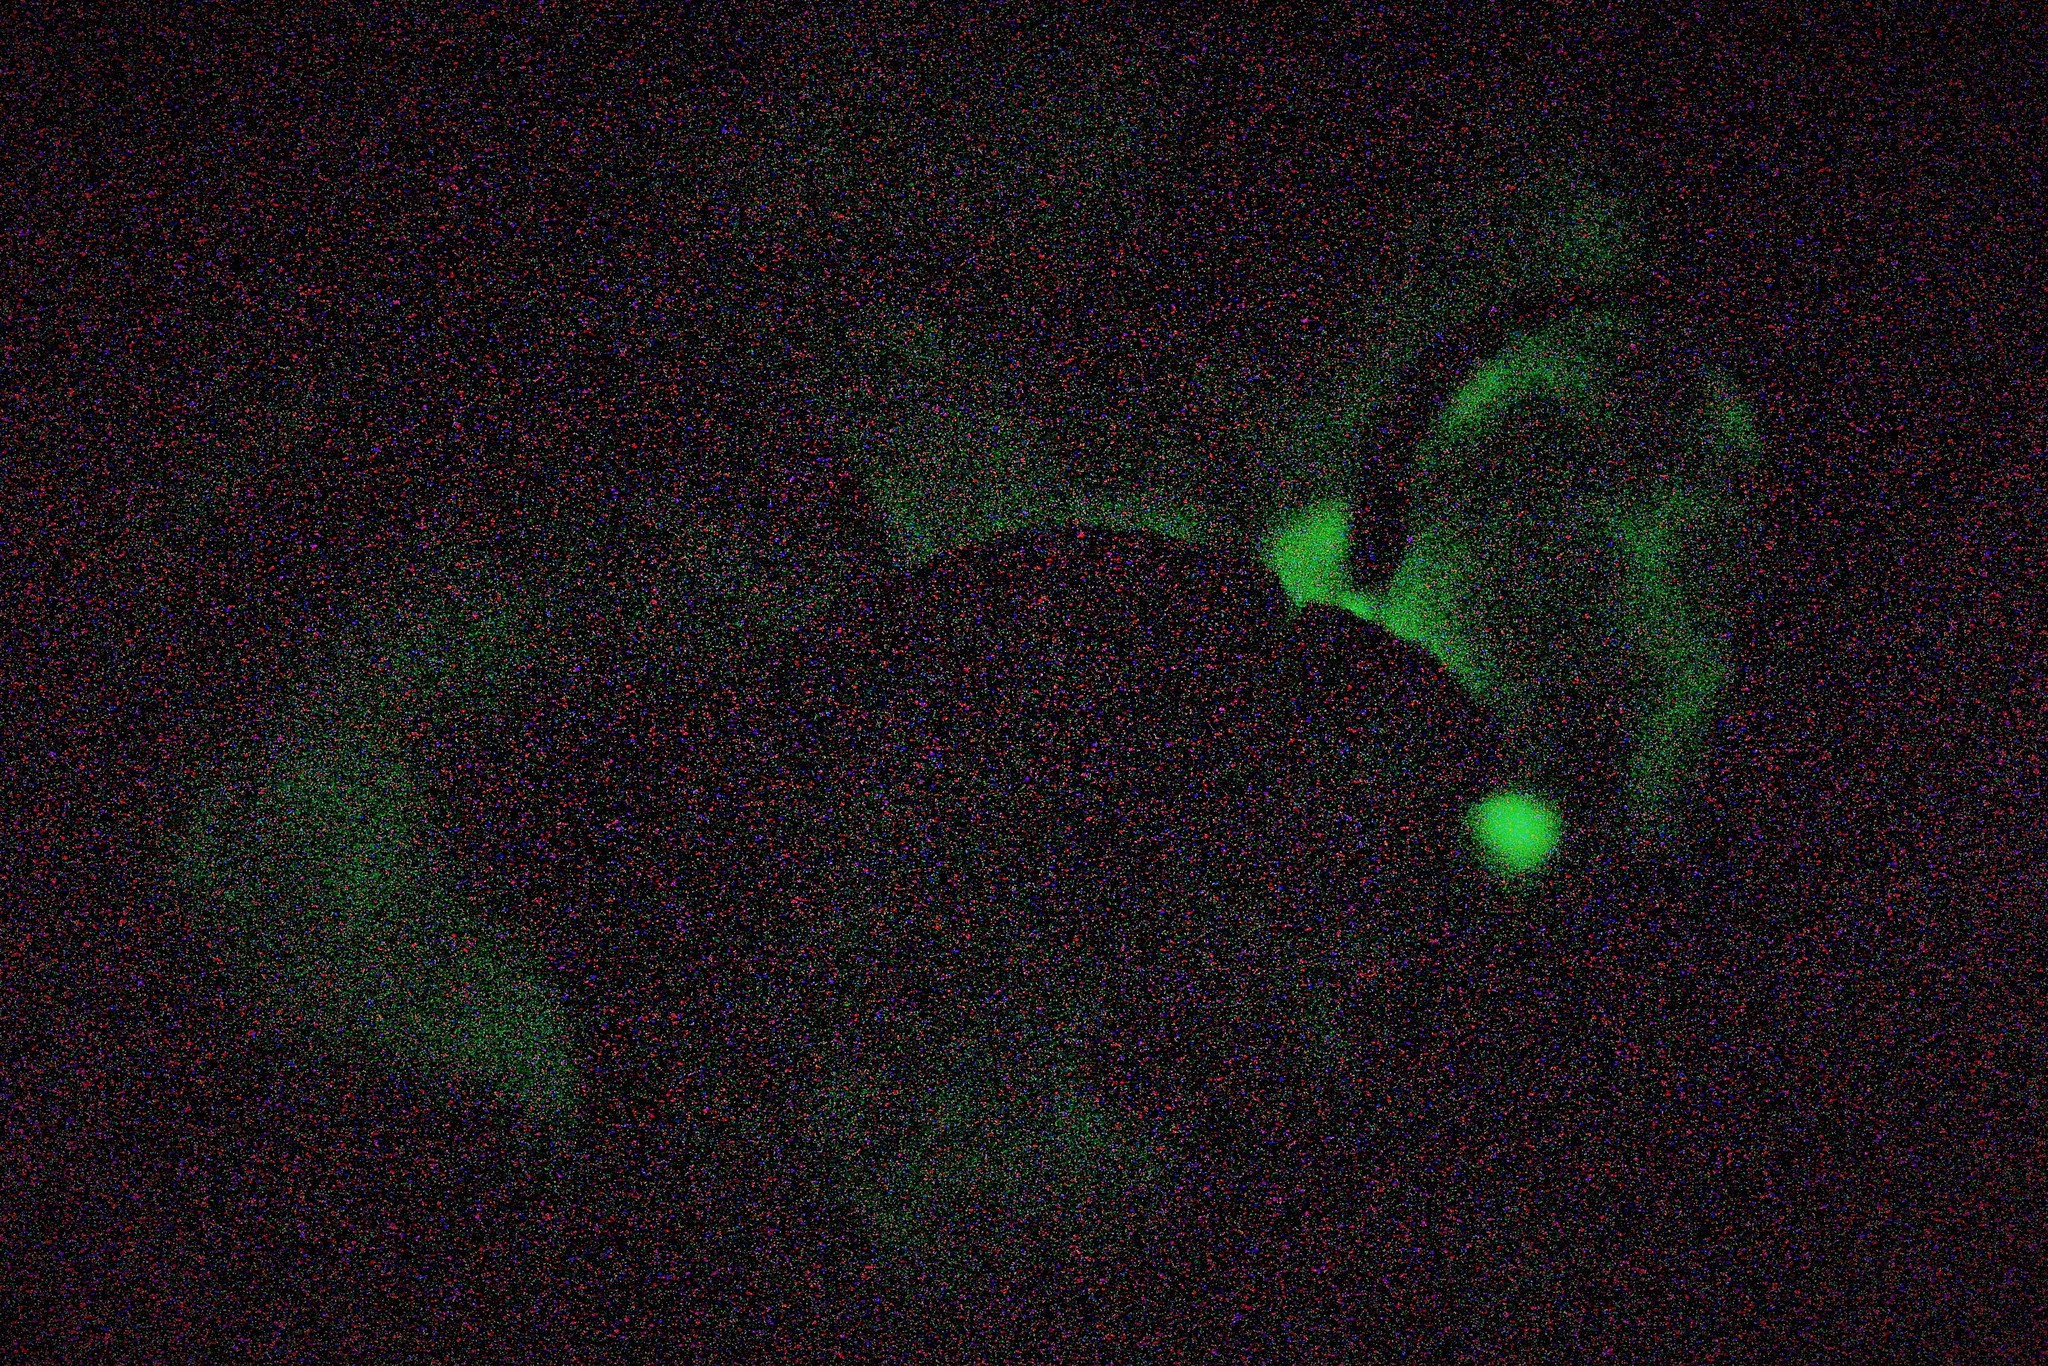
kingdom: Fungi
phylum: Basidiomycota
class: Agaricomycetes
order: Agaricales
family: Mycenaceae
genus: Panellus
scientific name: Panellus pusillus
